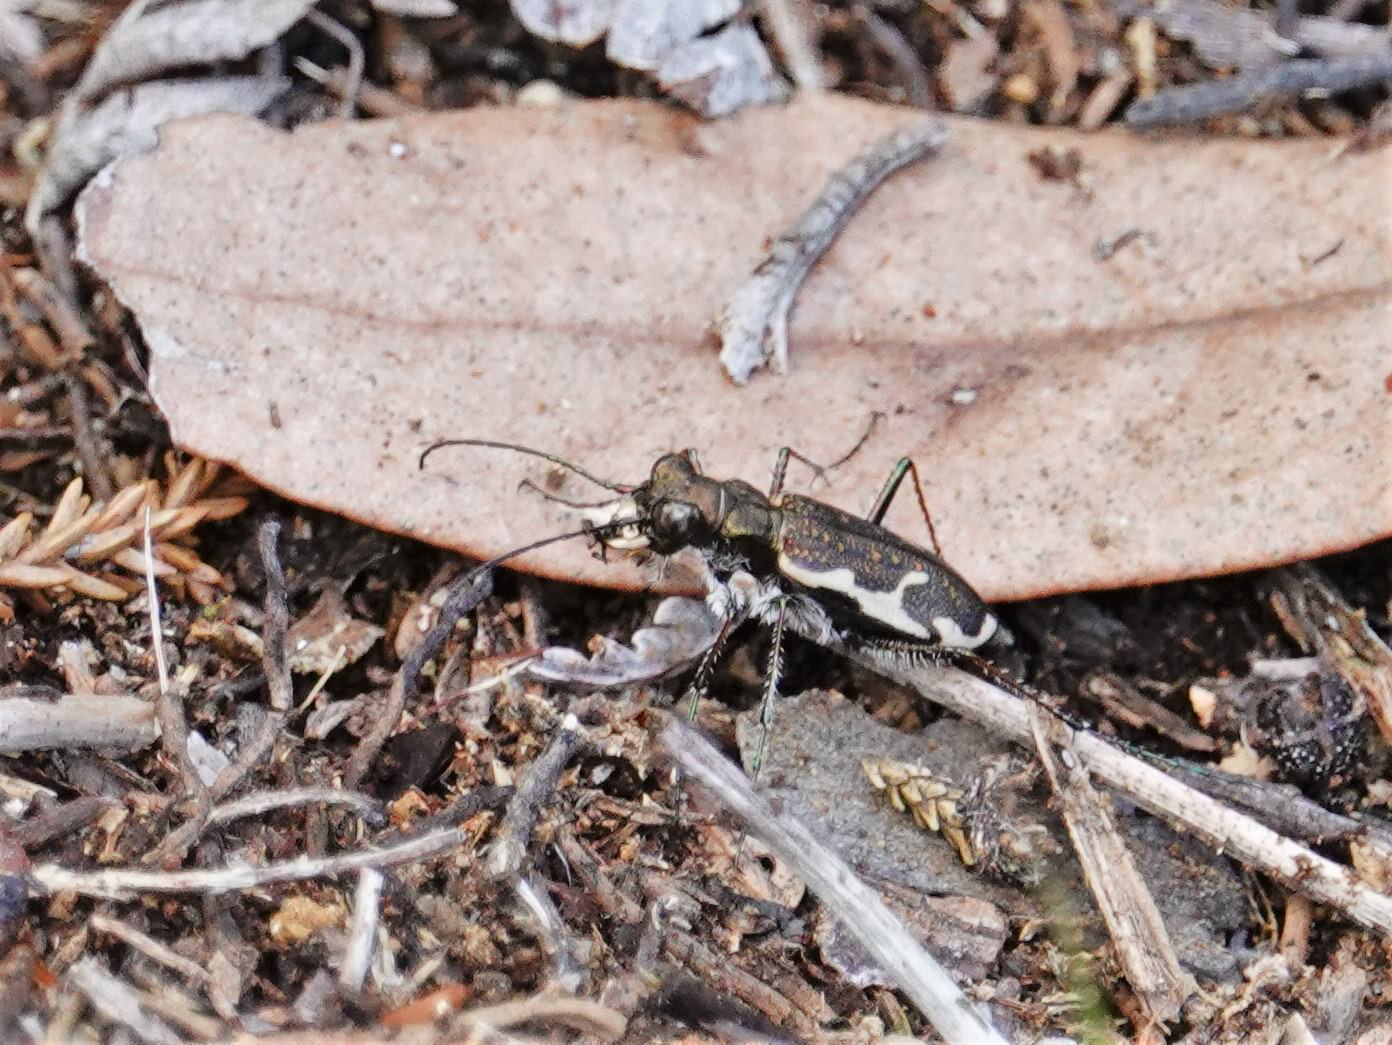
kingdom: Animalia
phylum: Arthropoda
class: Insecta
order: Coleoptera
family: Carabidae
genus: Neocicindela
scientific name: Neocicindela tuberculata
